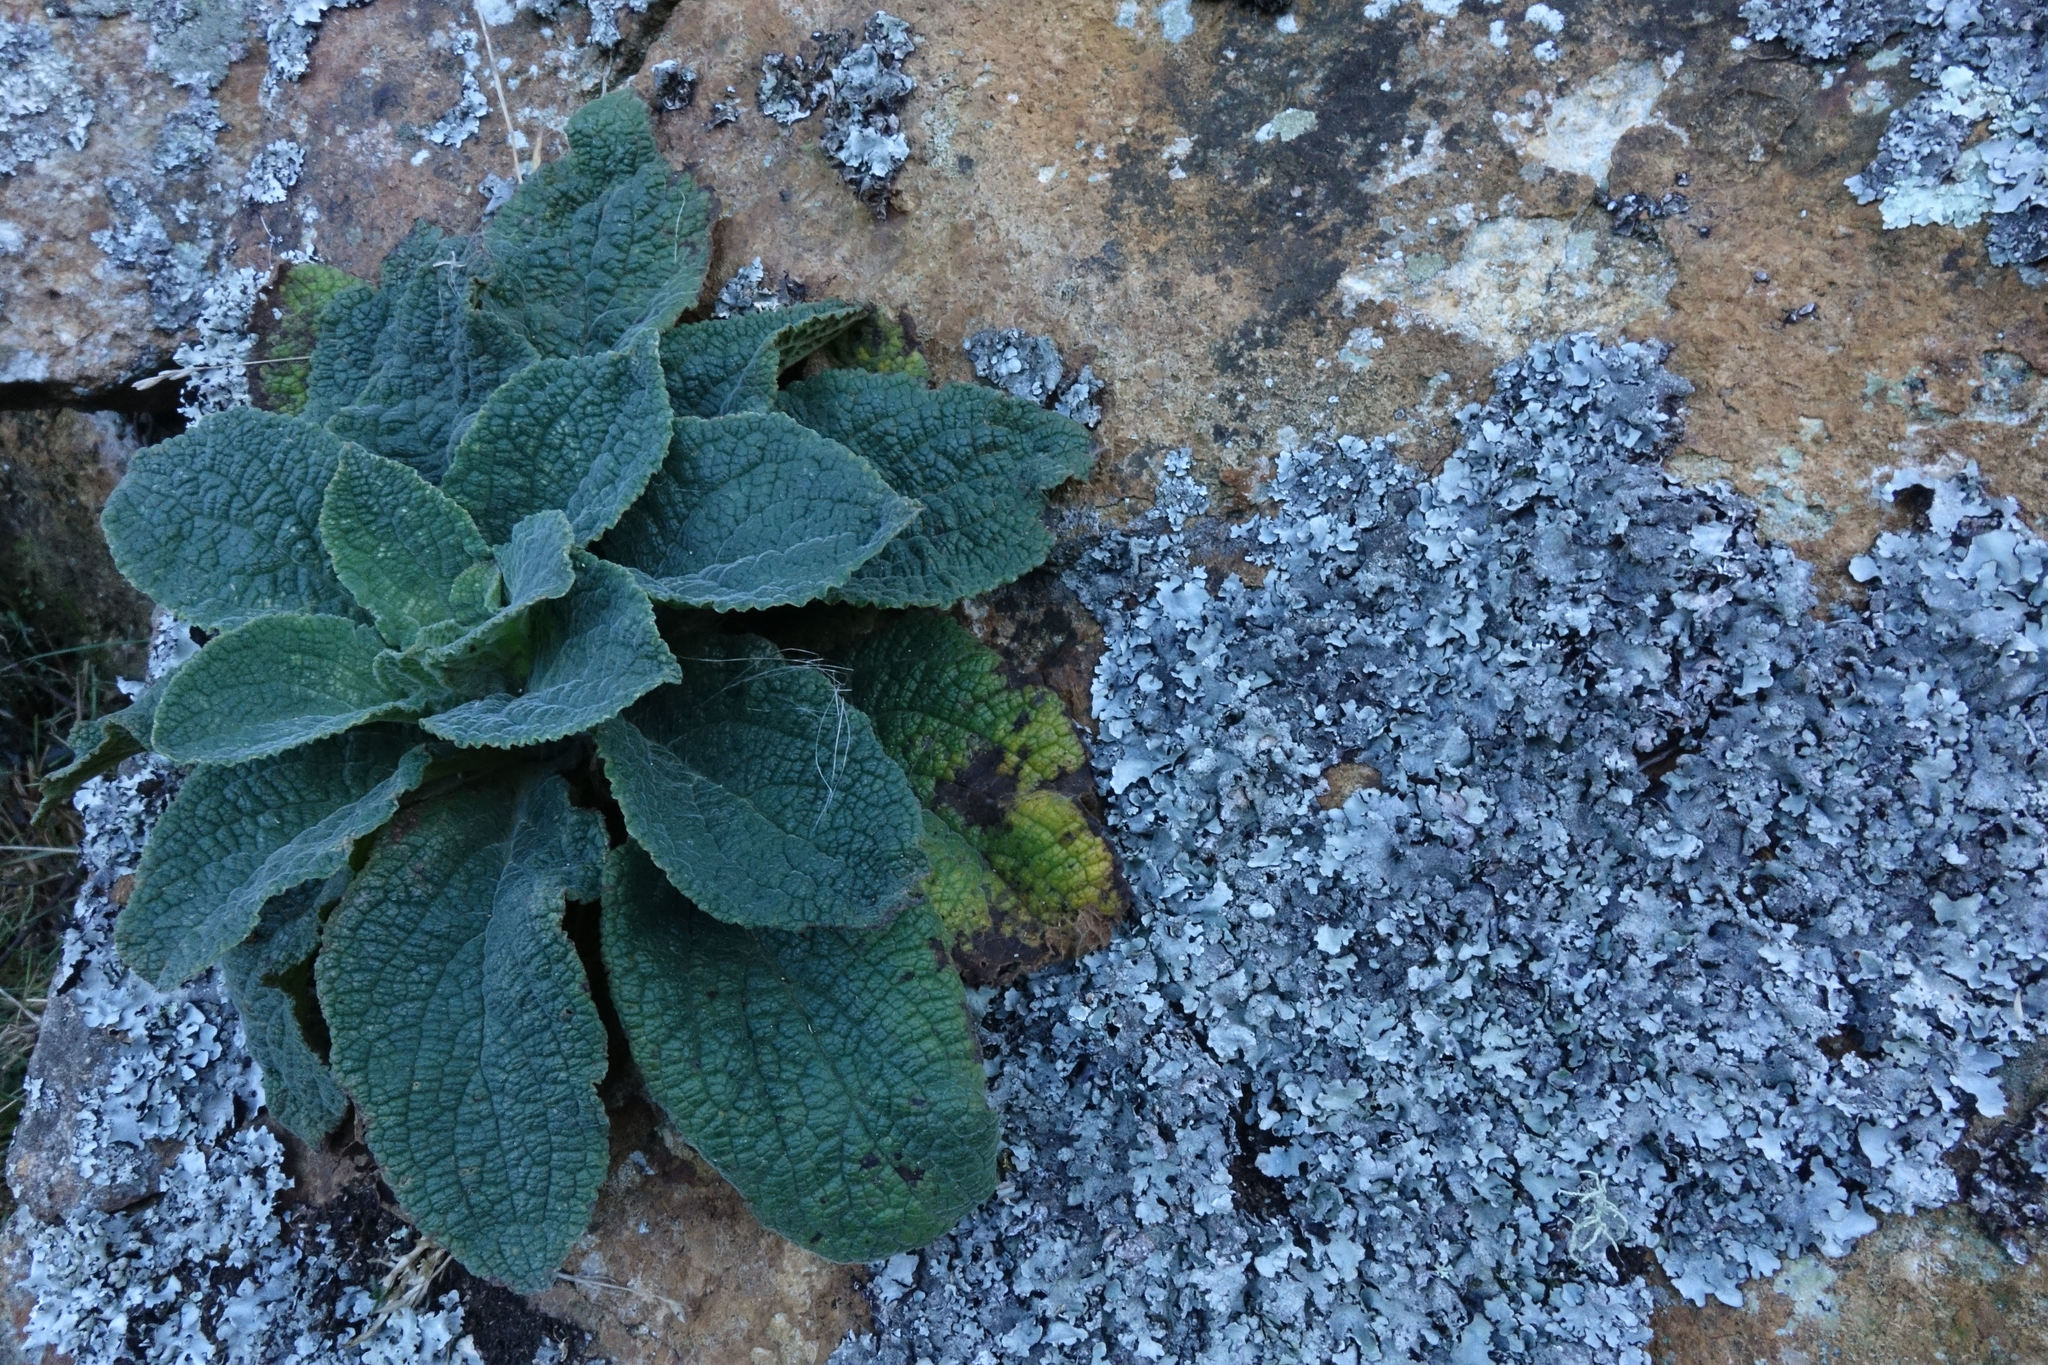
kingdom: Plantae
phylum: Tracheophyta
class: Magnoliopsida
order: Lamiales
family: Plantaginaceae
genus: Digitalis
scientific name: Digitalis purpurea
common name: Foxglove
